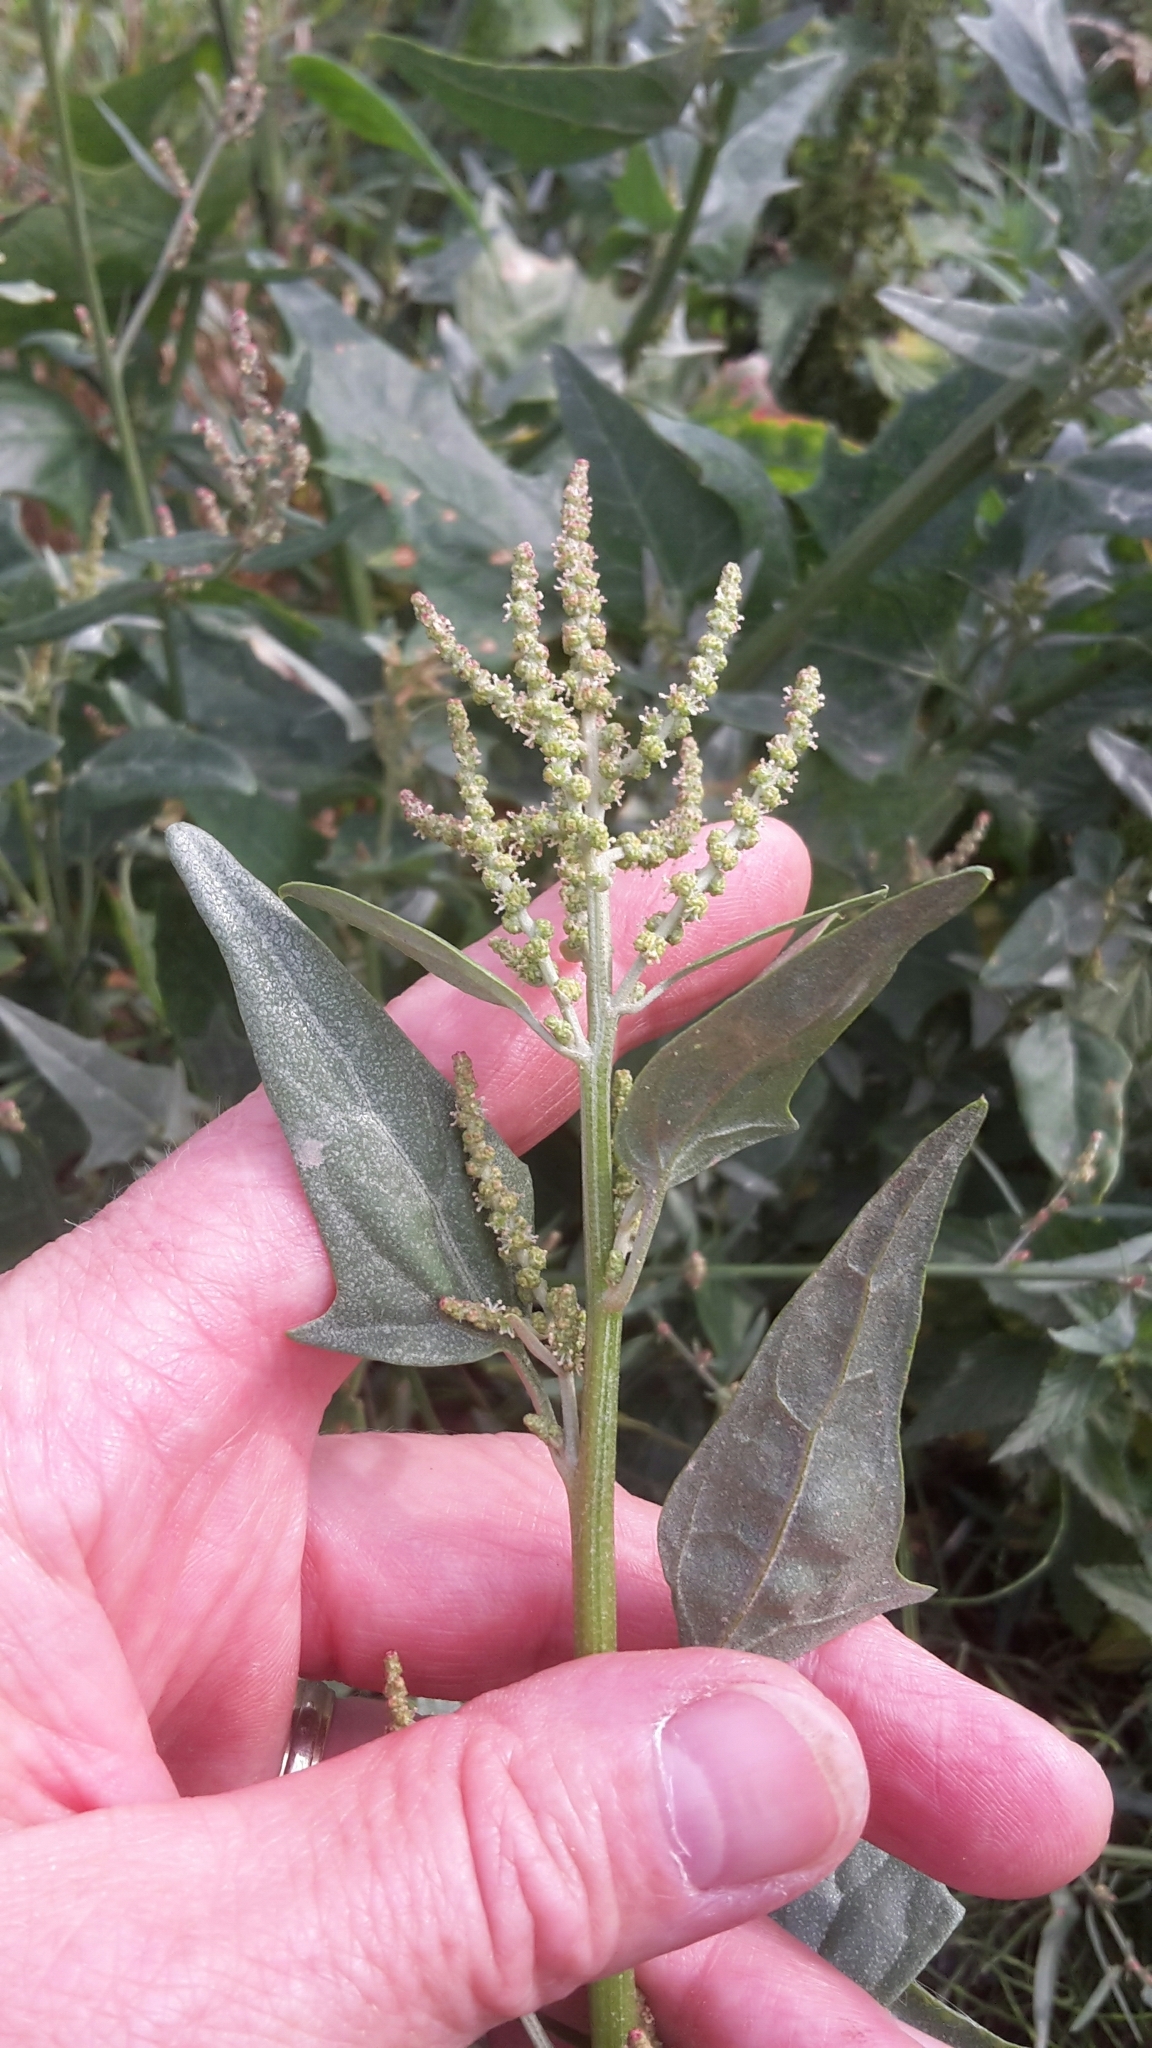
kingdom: Plantae
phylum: Tracheophyta
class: Magnoliopsida
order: Caryophyllales
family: Amaranthaceae
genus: Atriplex
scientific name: Atriplex micrantha
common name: Twoscale saltbush
